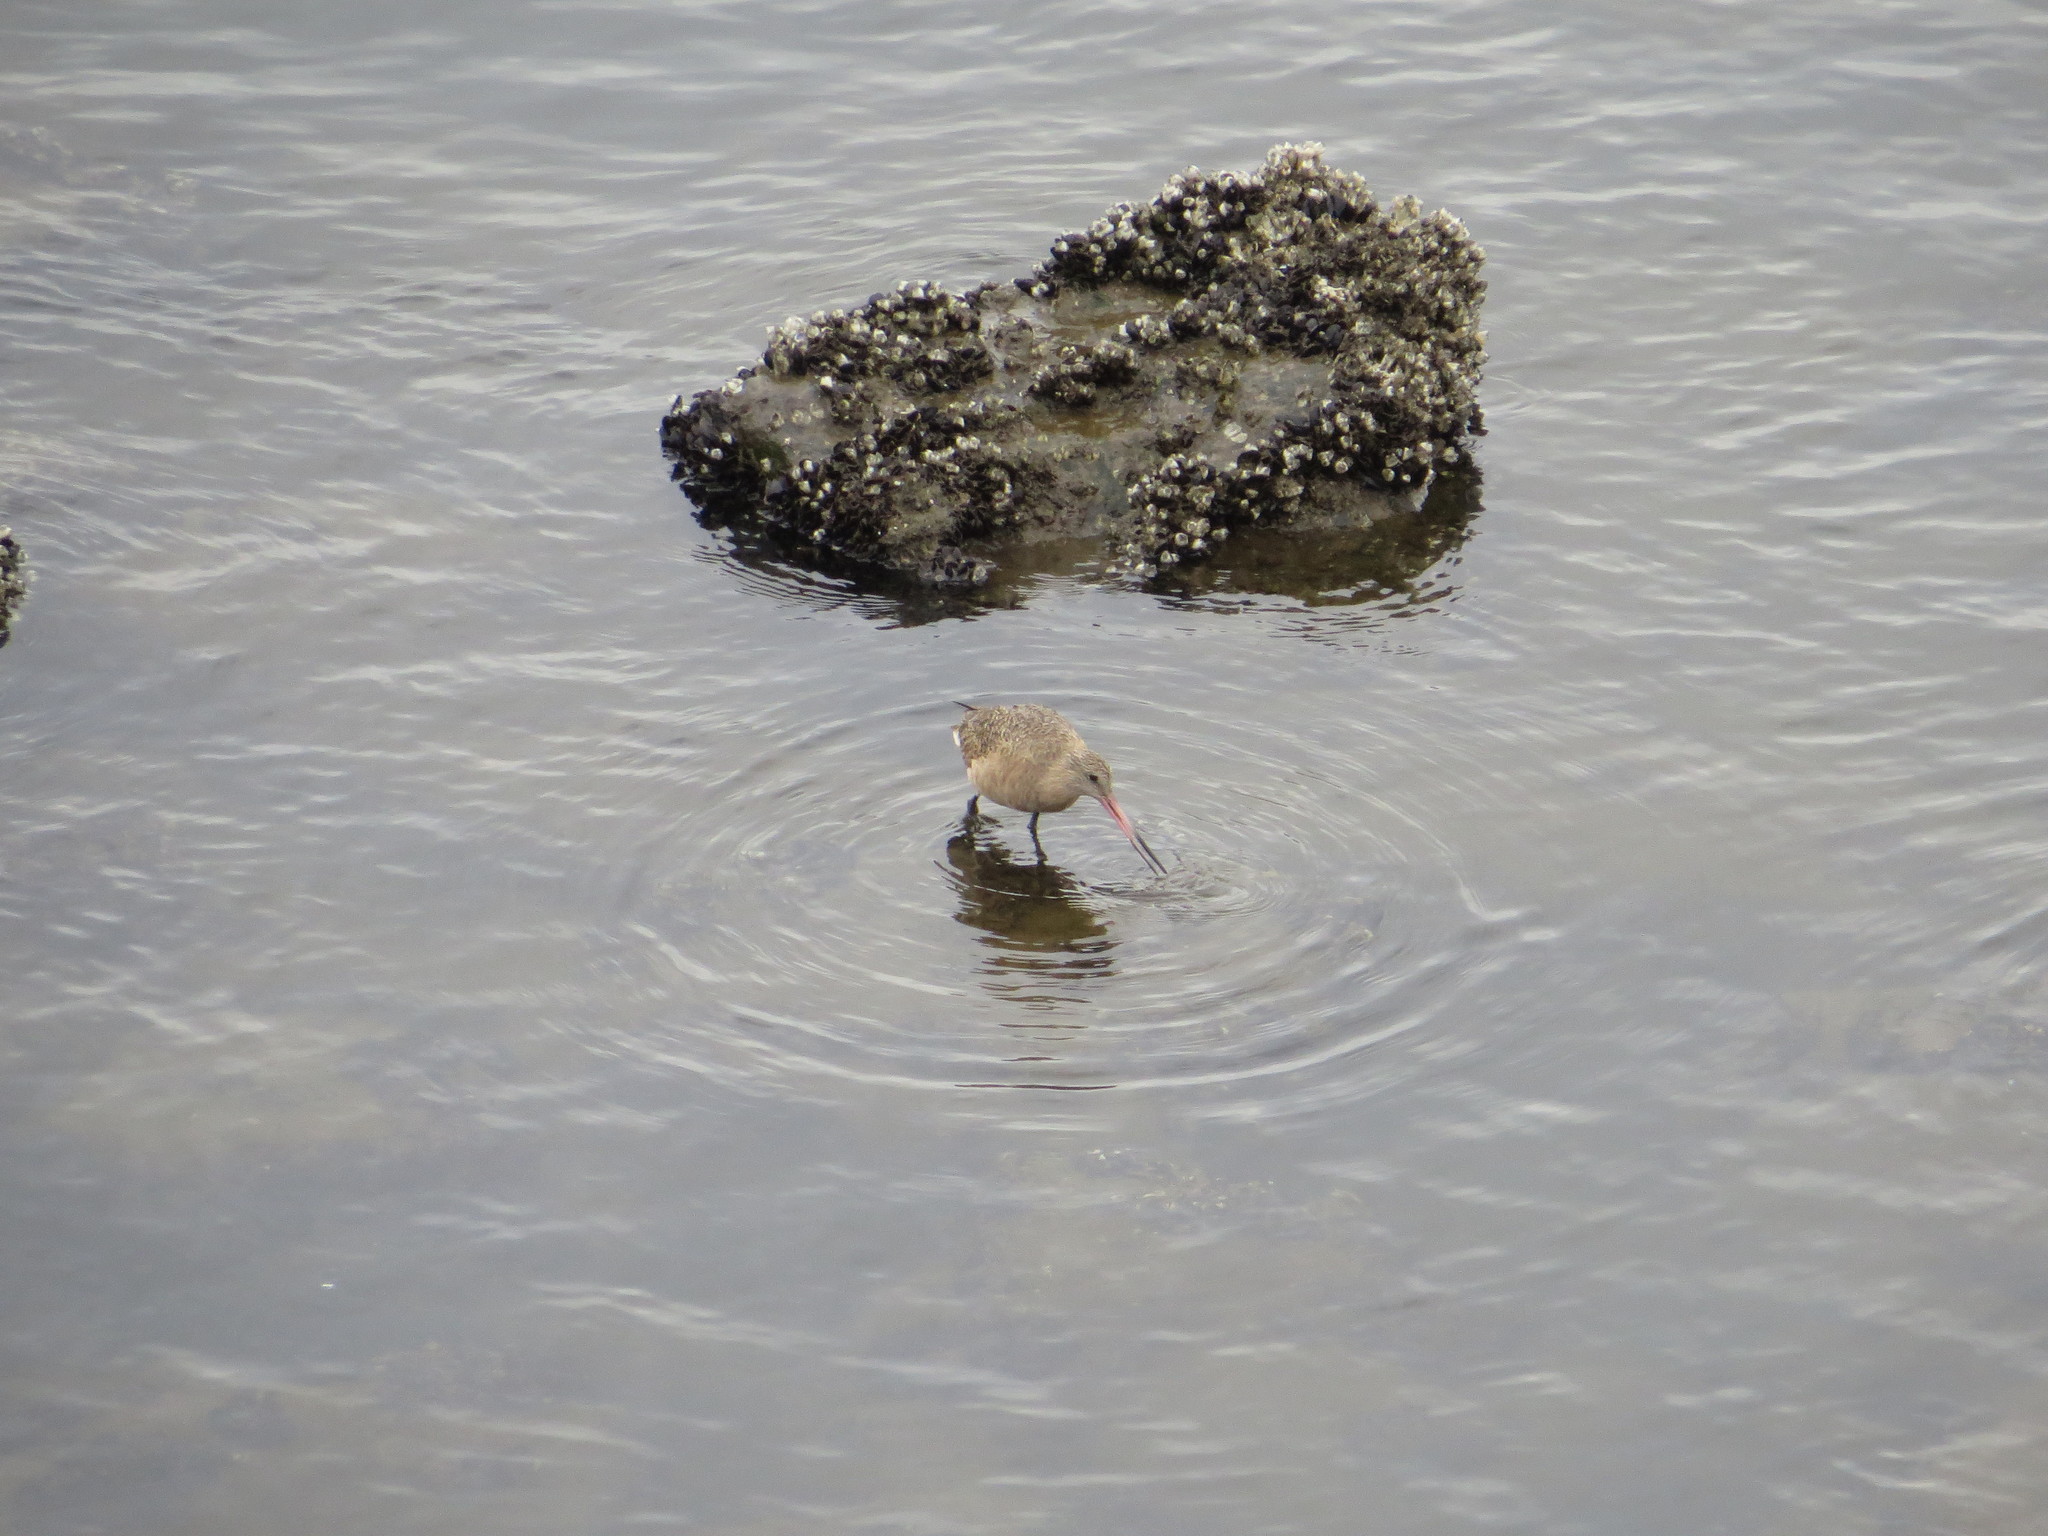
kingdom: Animalia
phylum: Chordata
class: Aves
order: Charadriiformes
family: Scolopacidae
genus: Limosa
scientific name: Limosa fedoa
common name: Marbled godwit
